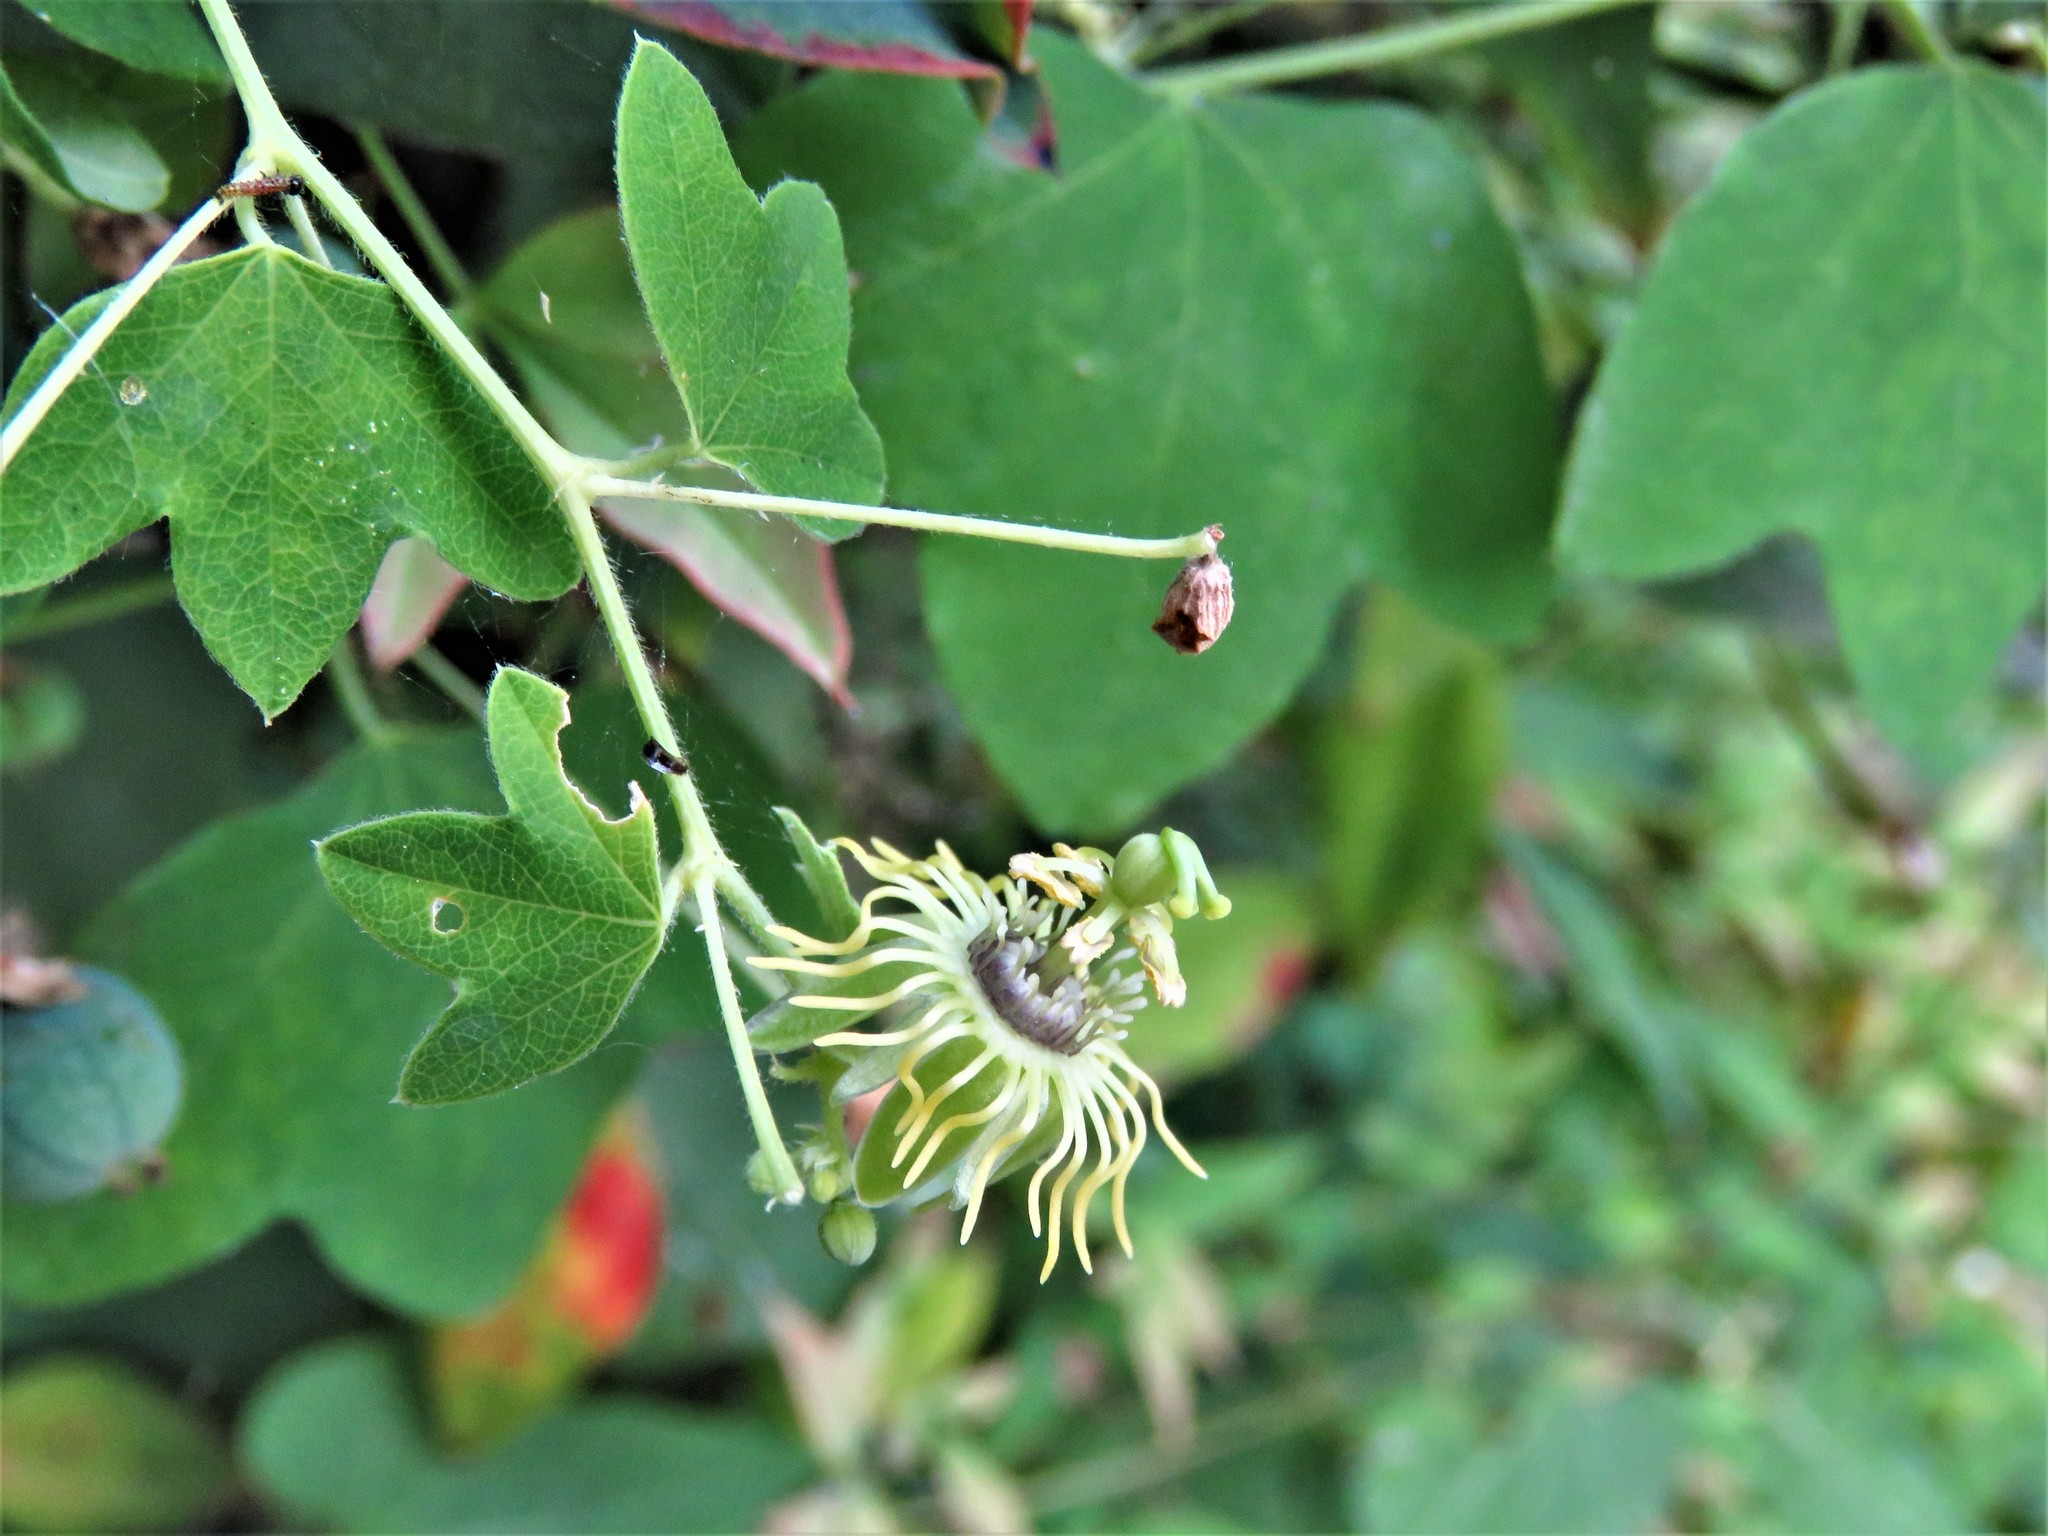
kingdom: Plantae
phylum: Tracheophyta
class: Magnoliopsida
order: Malpighiales
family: Passifloraceae
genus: Passiflora
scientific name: Passiflora lutea
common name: Yellow passionflower
